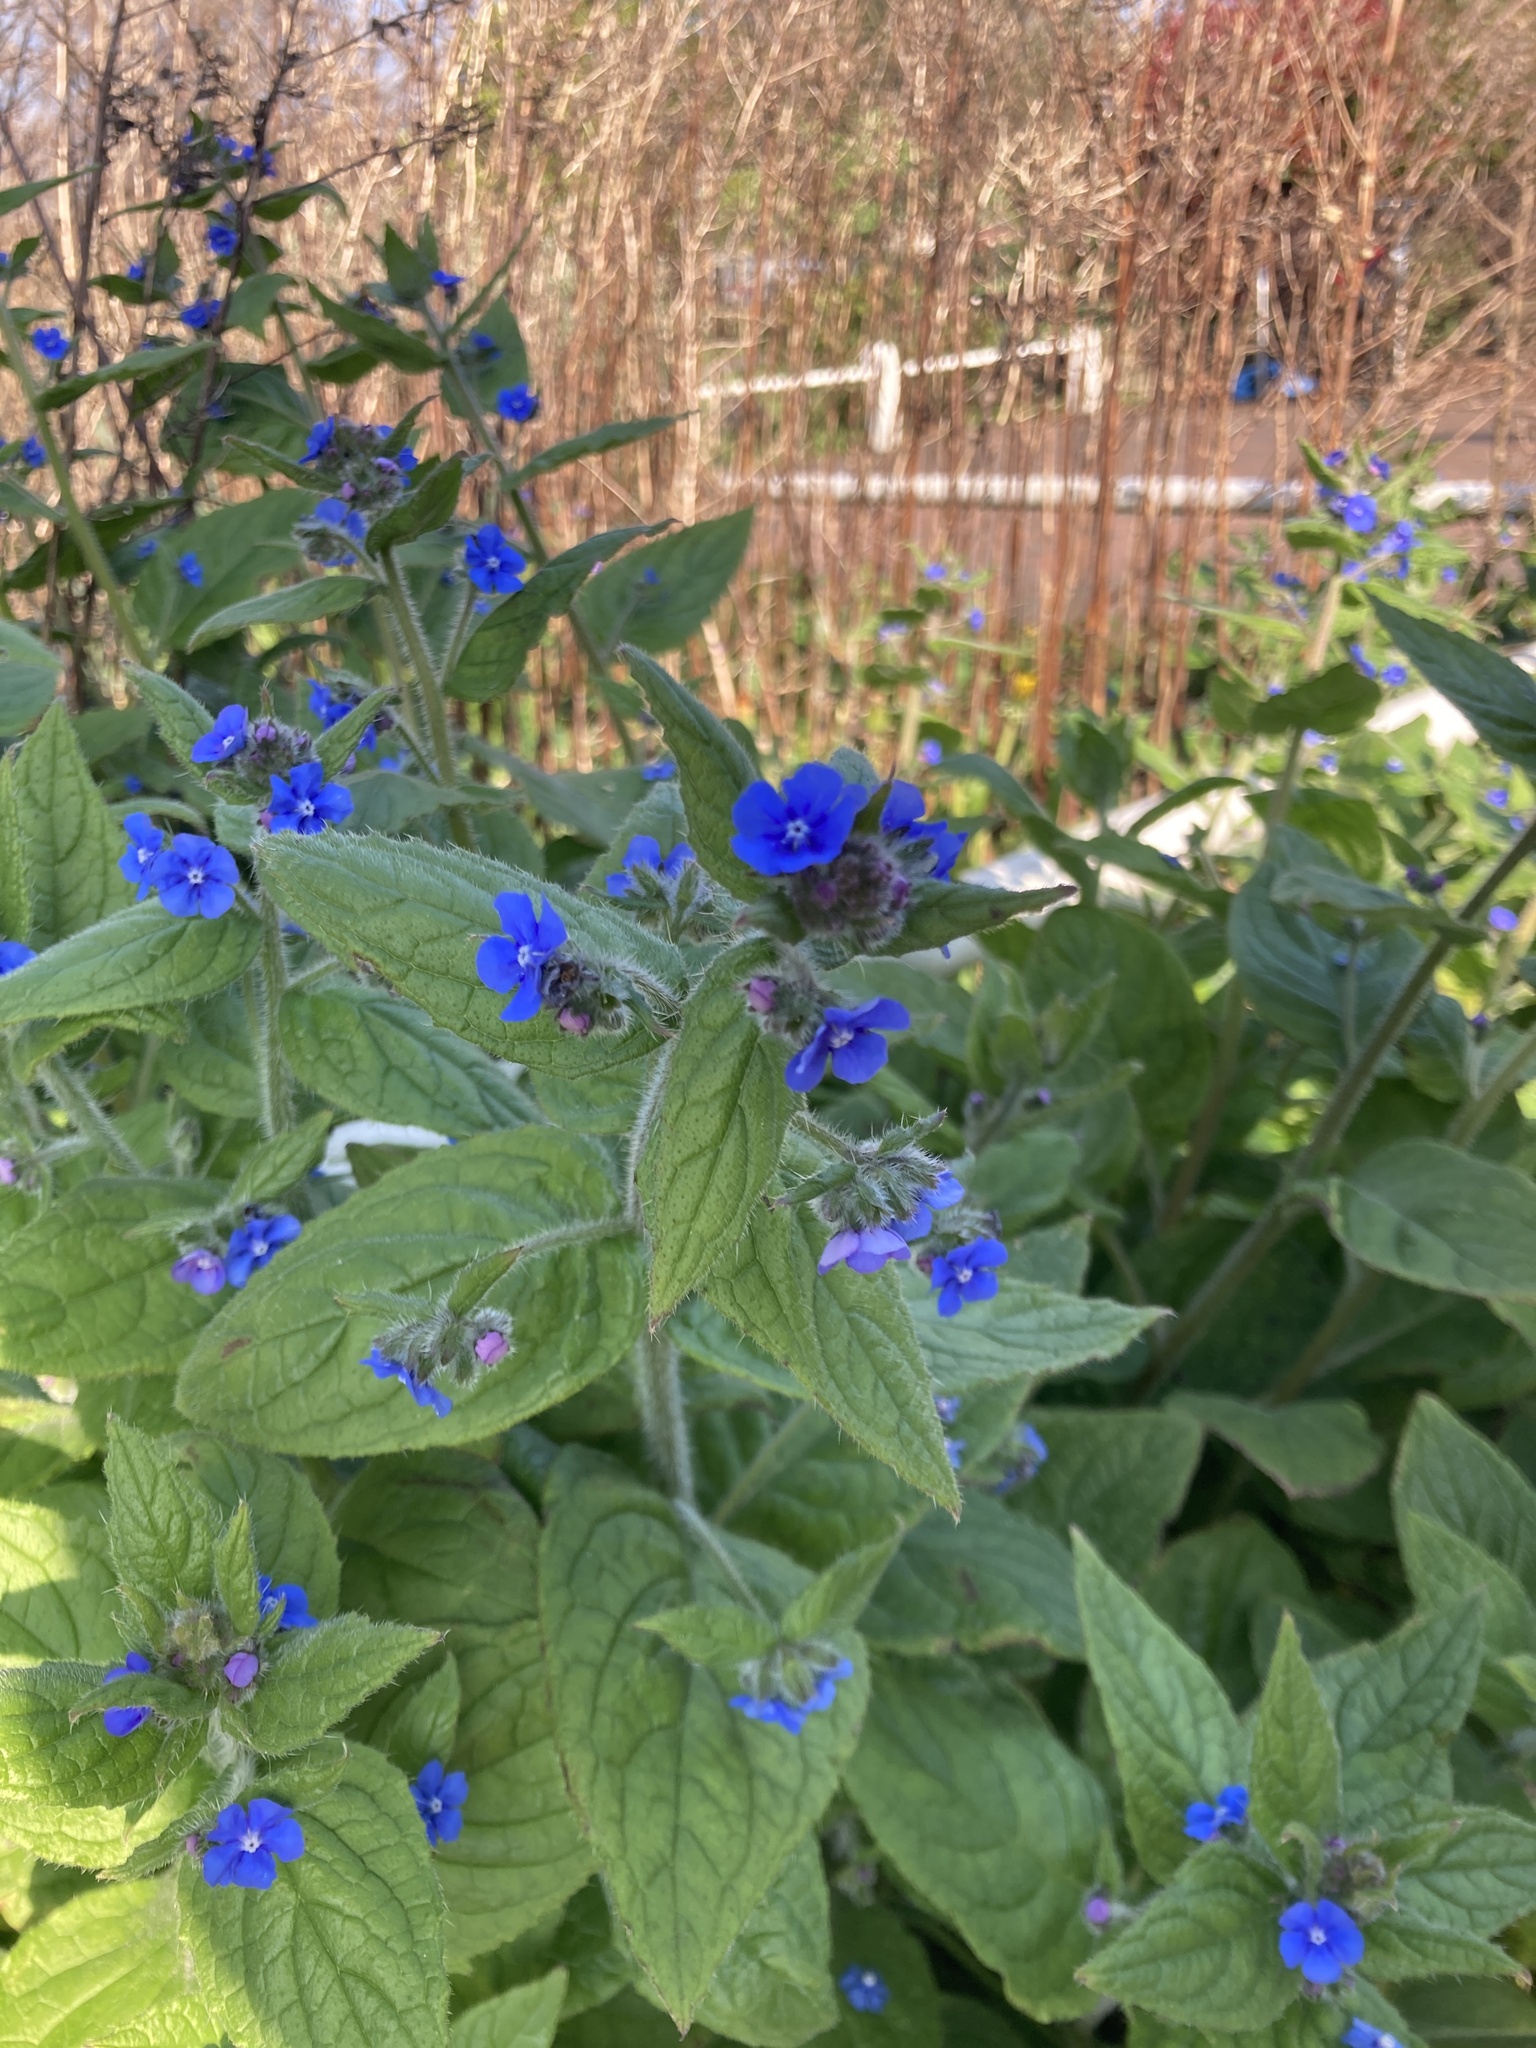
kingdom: Plantae
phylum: Tracheophyta
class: Magnoliopsida
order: Boraginales
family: Boraginaceae
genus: Pentaglottis
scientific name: Pentaglottis sempervirens
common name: Green alkanet
